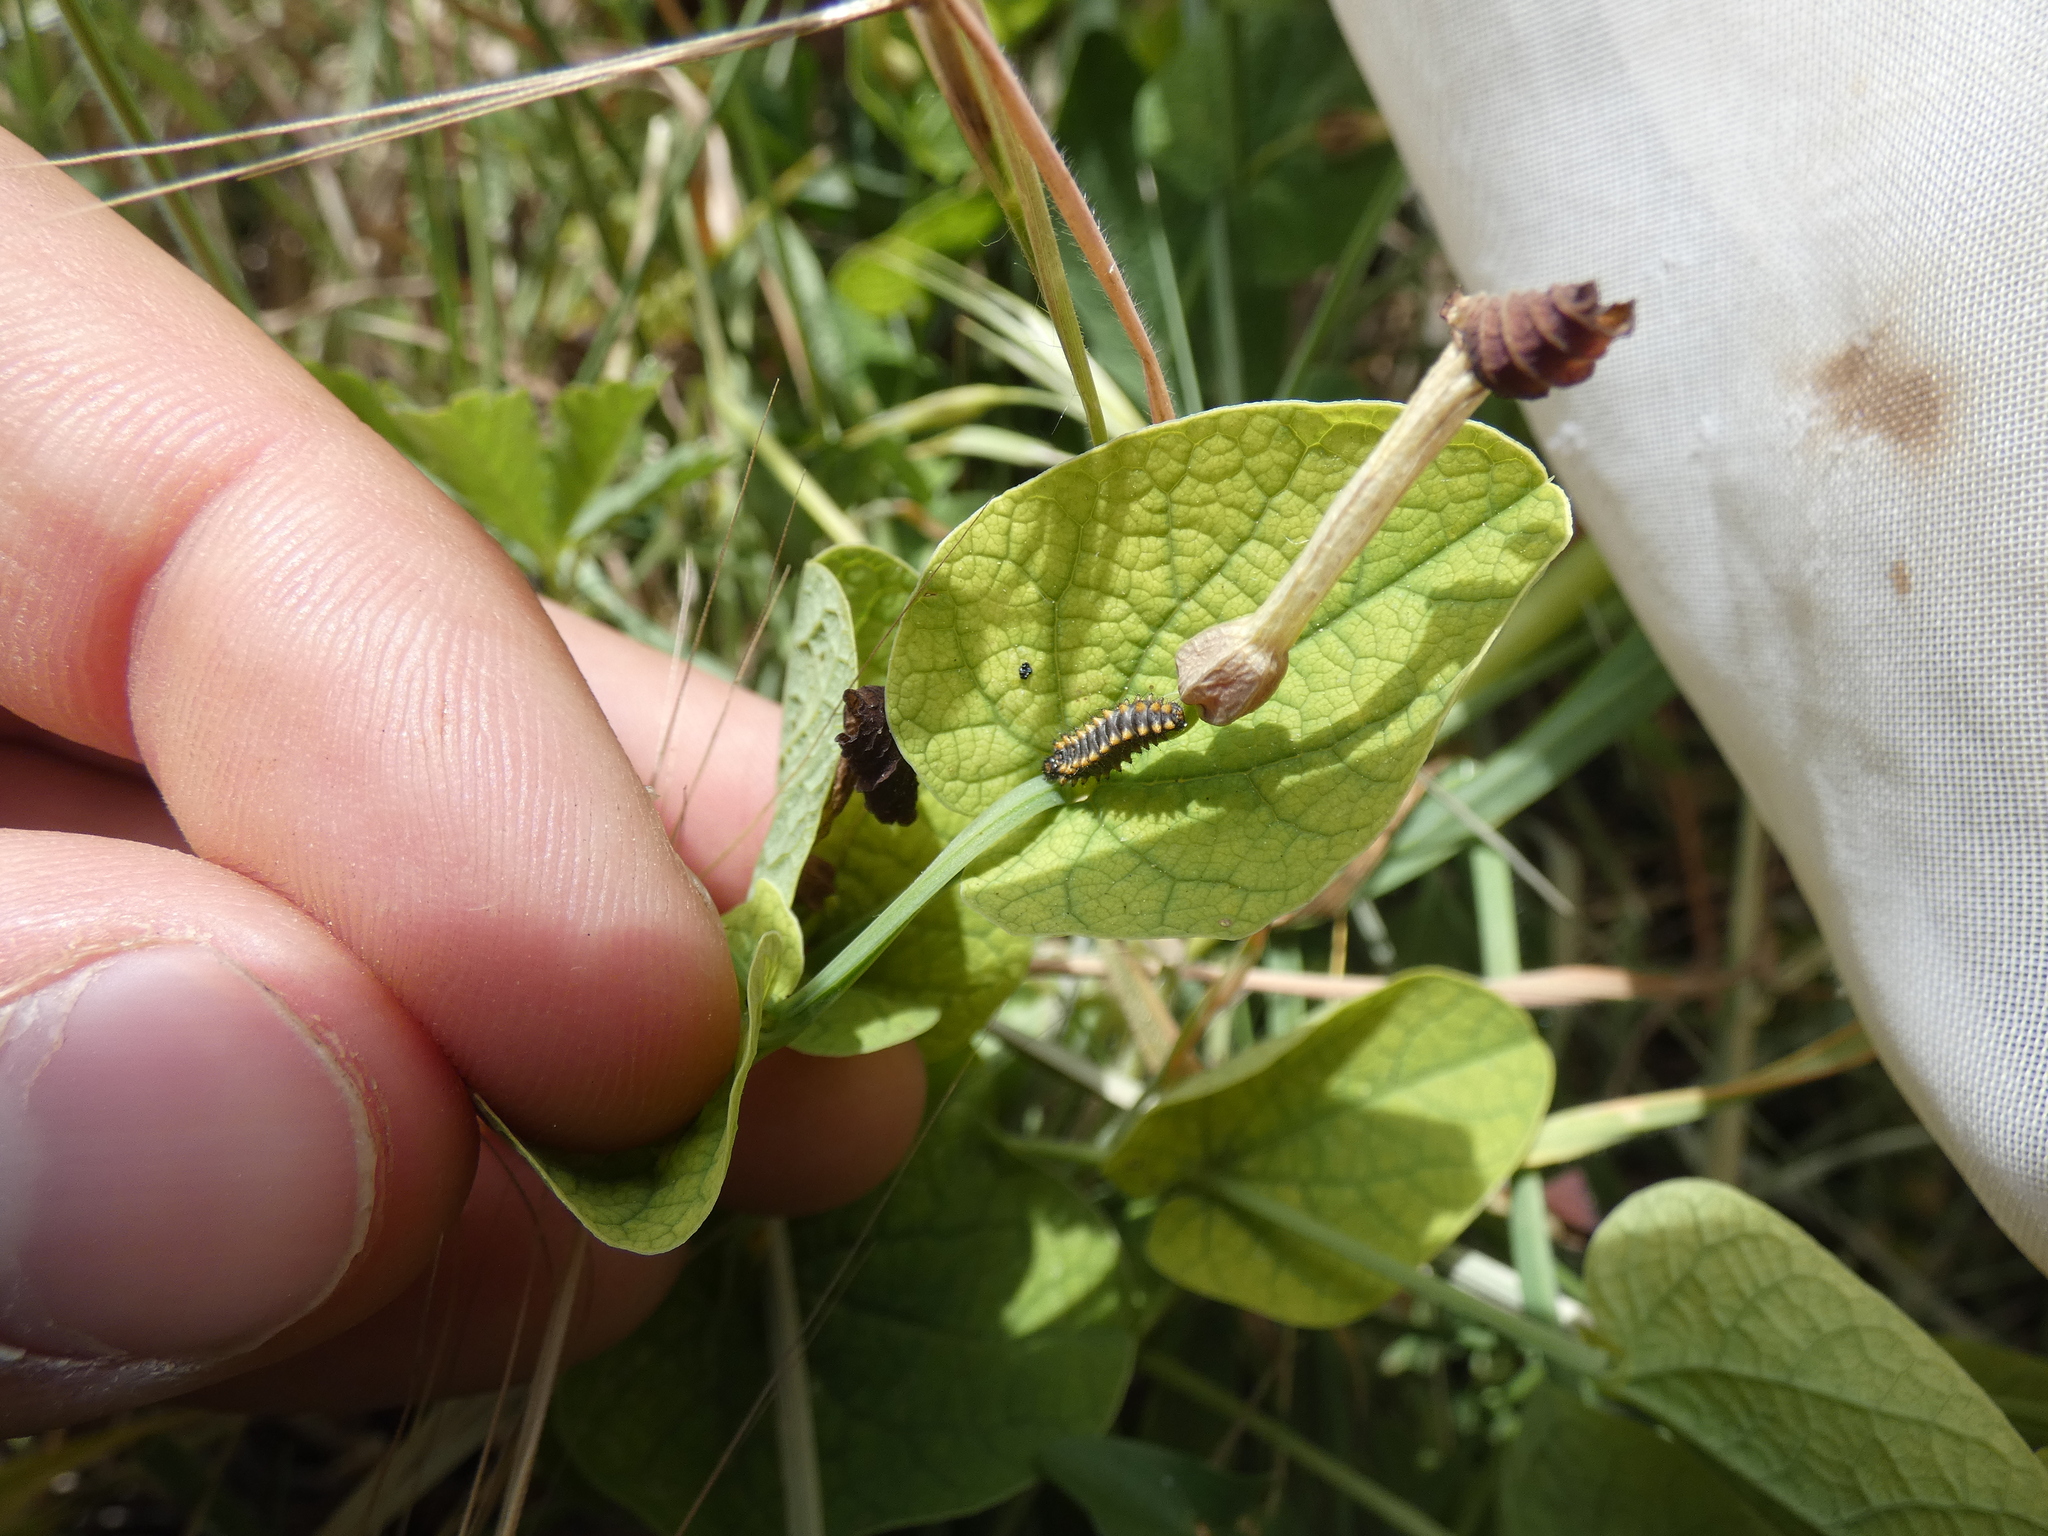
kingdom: Animalia
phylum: Arthropoda
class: Insecta
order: Lepidoptera
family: Papilionidae
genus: Zerynthia
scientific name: Zerynthia polyxena
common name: Southern festoon
